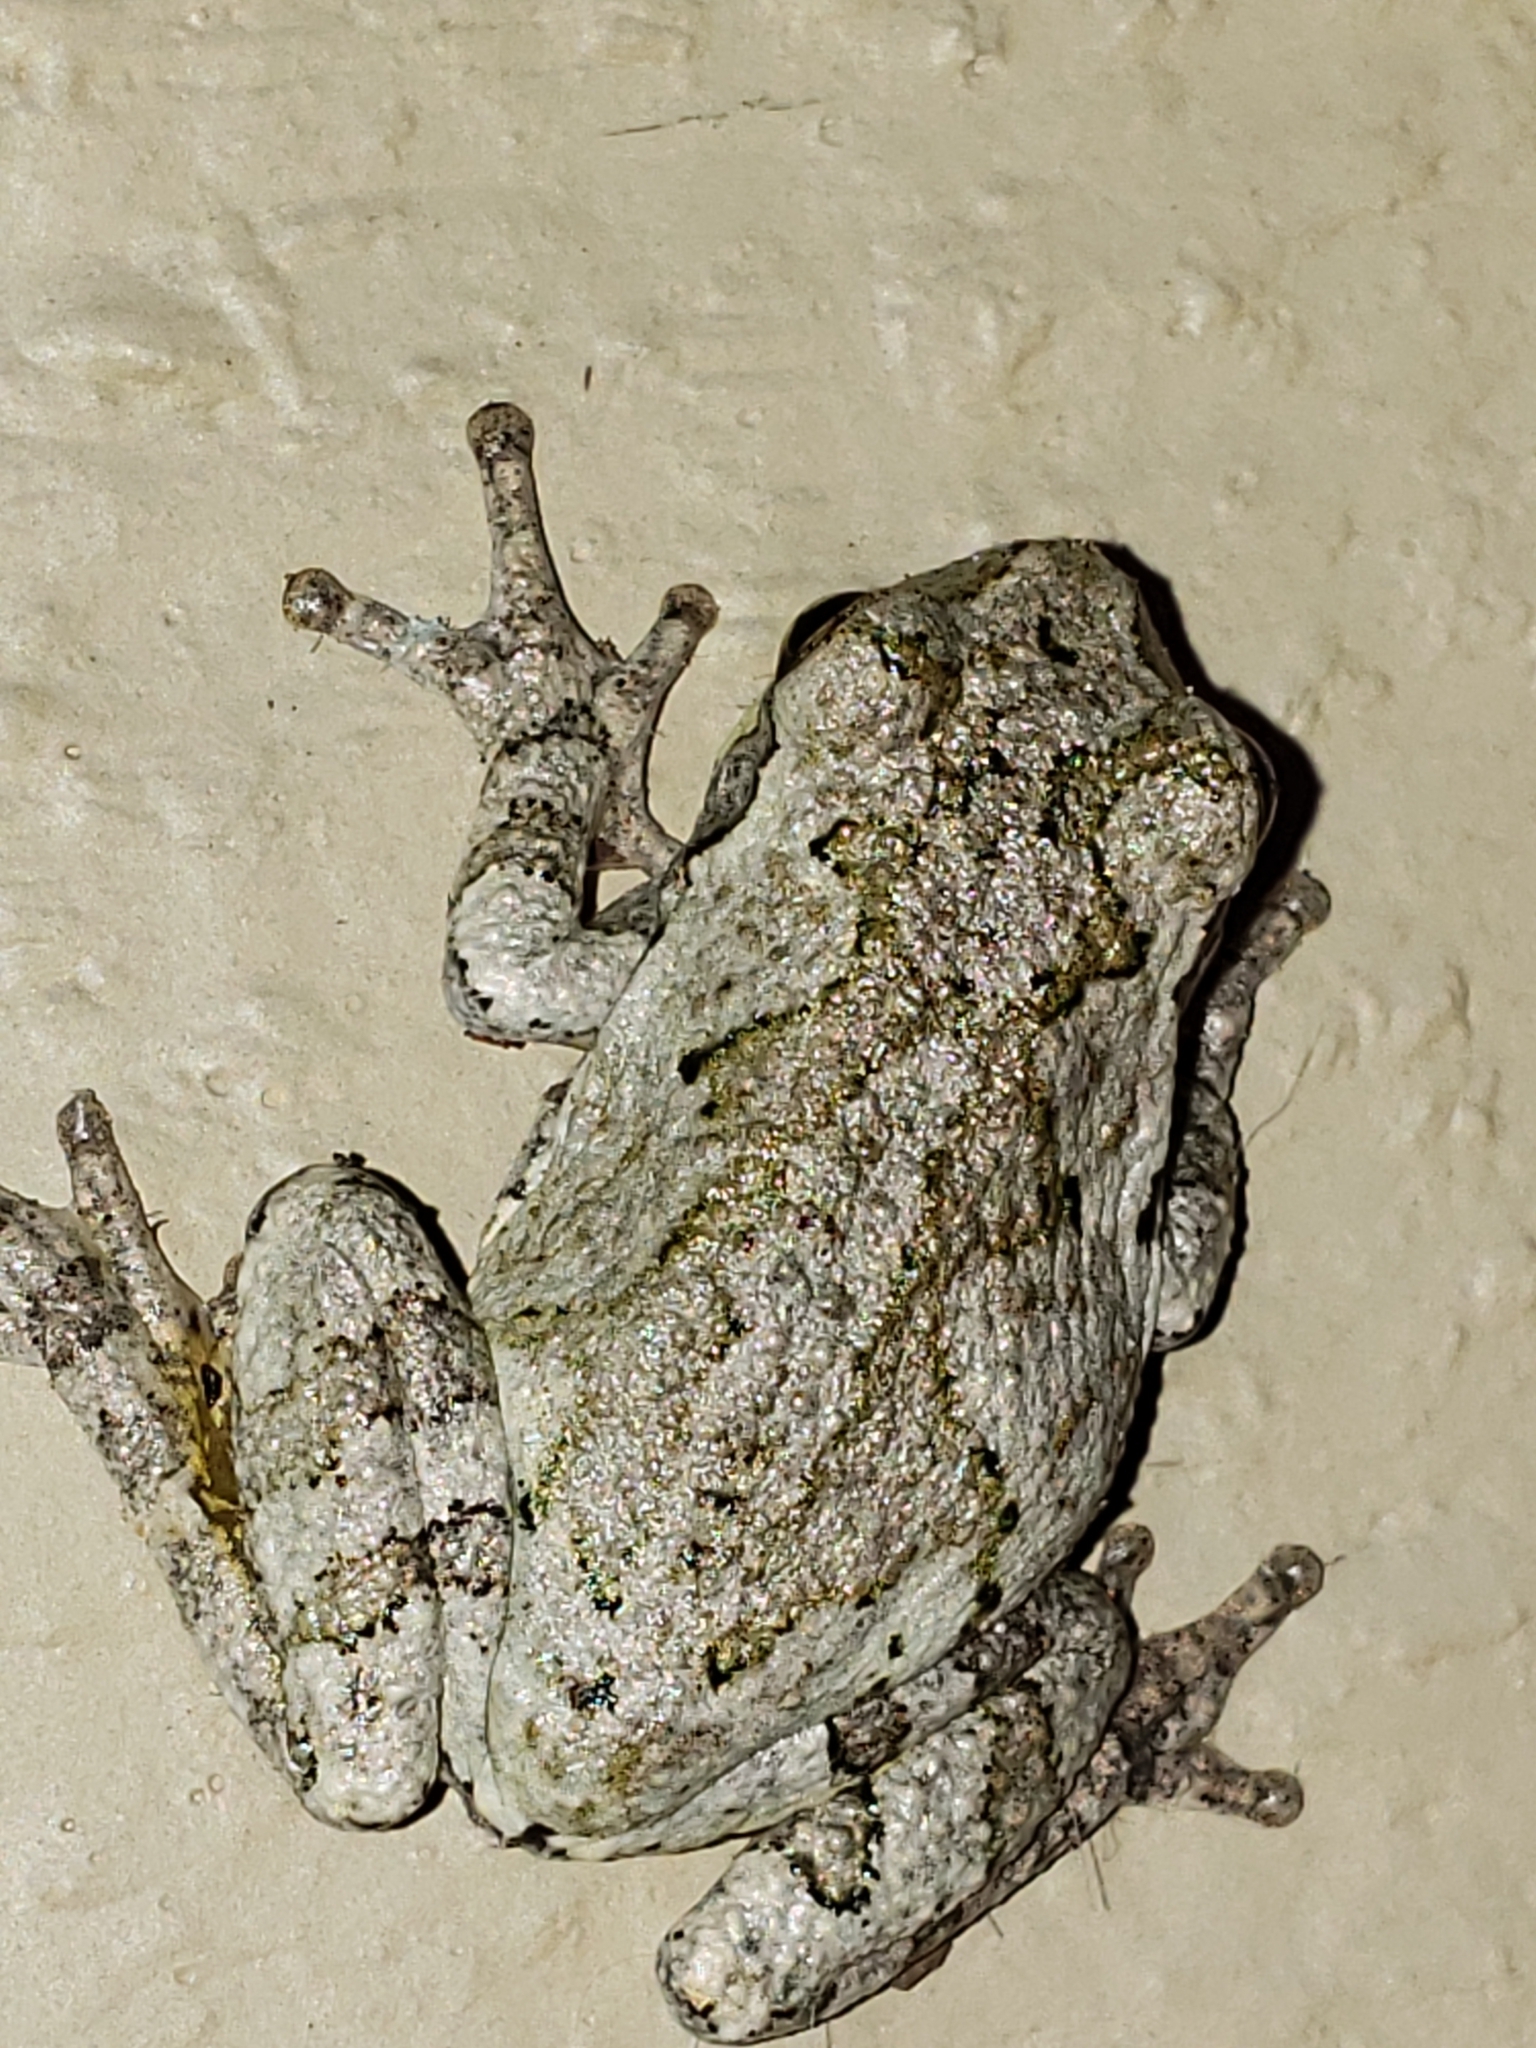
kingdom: Animalia
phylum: Chordata
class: Amphibia
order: Anura
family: Hylidae
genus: Hyla
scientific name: Hyla
